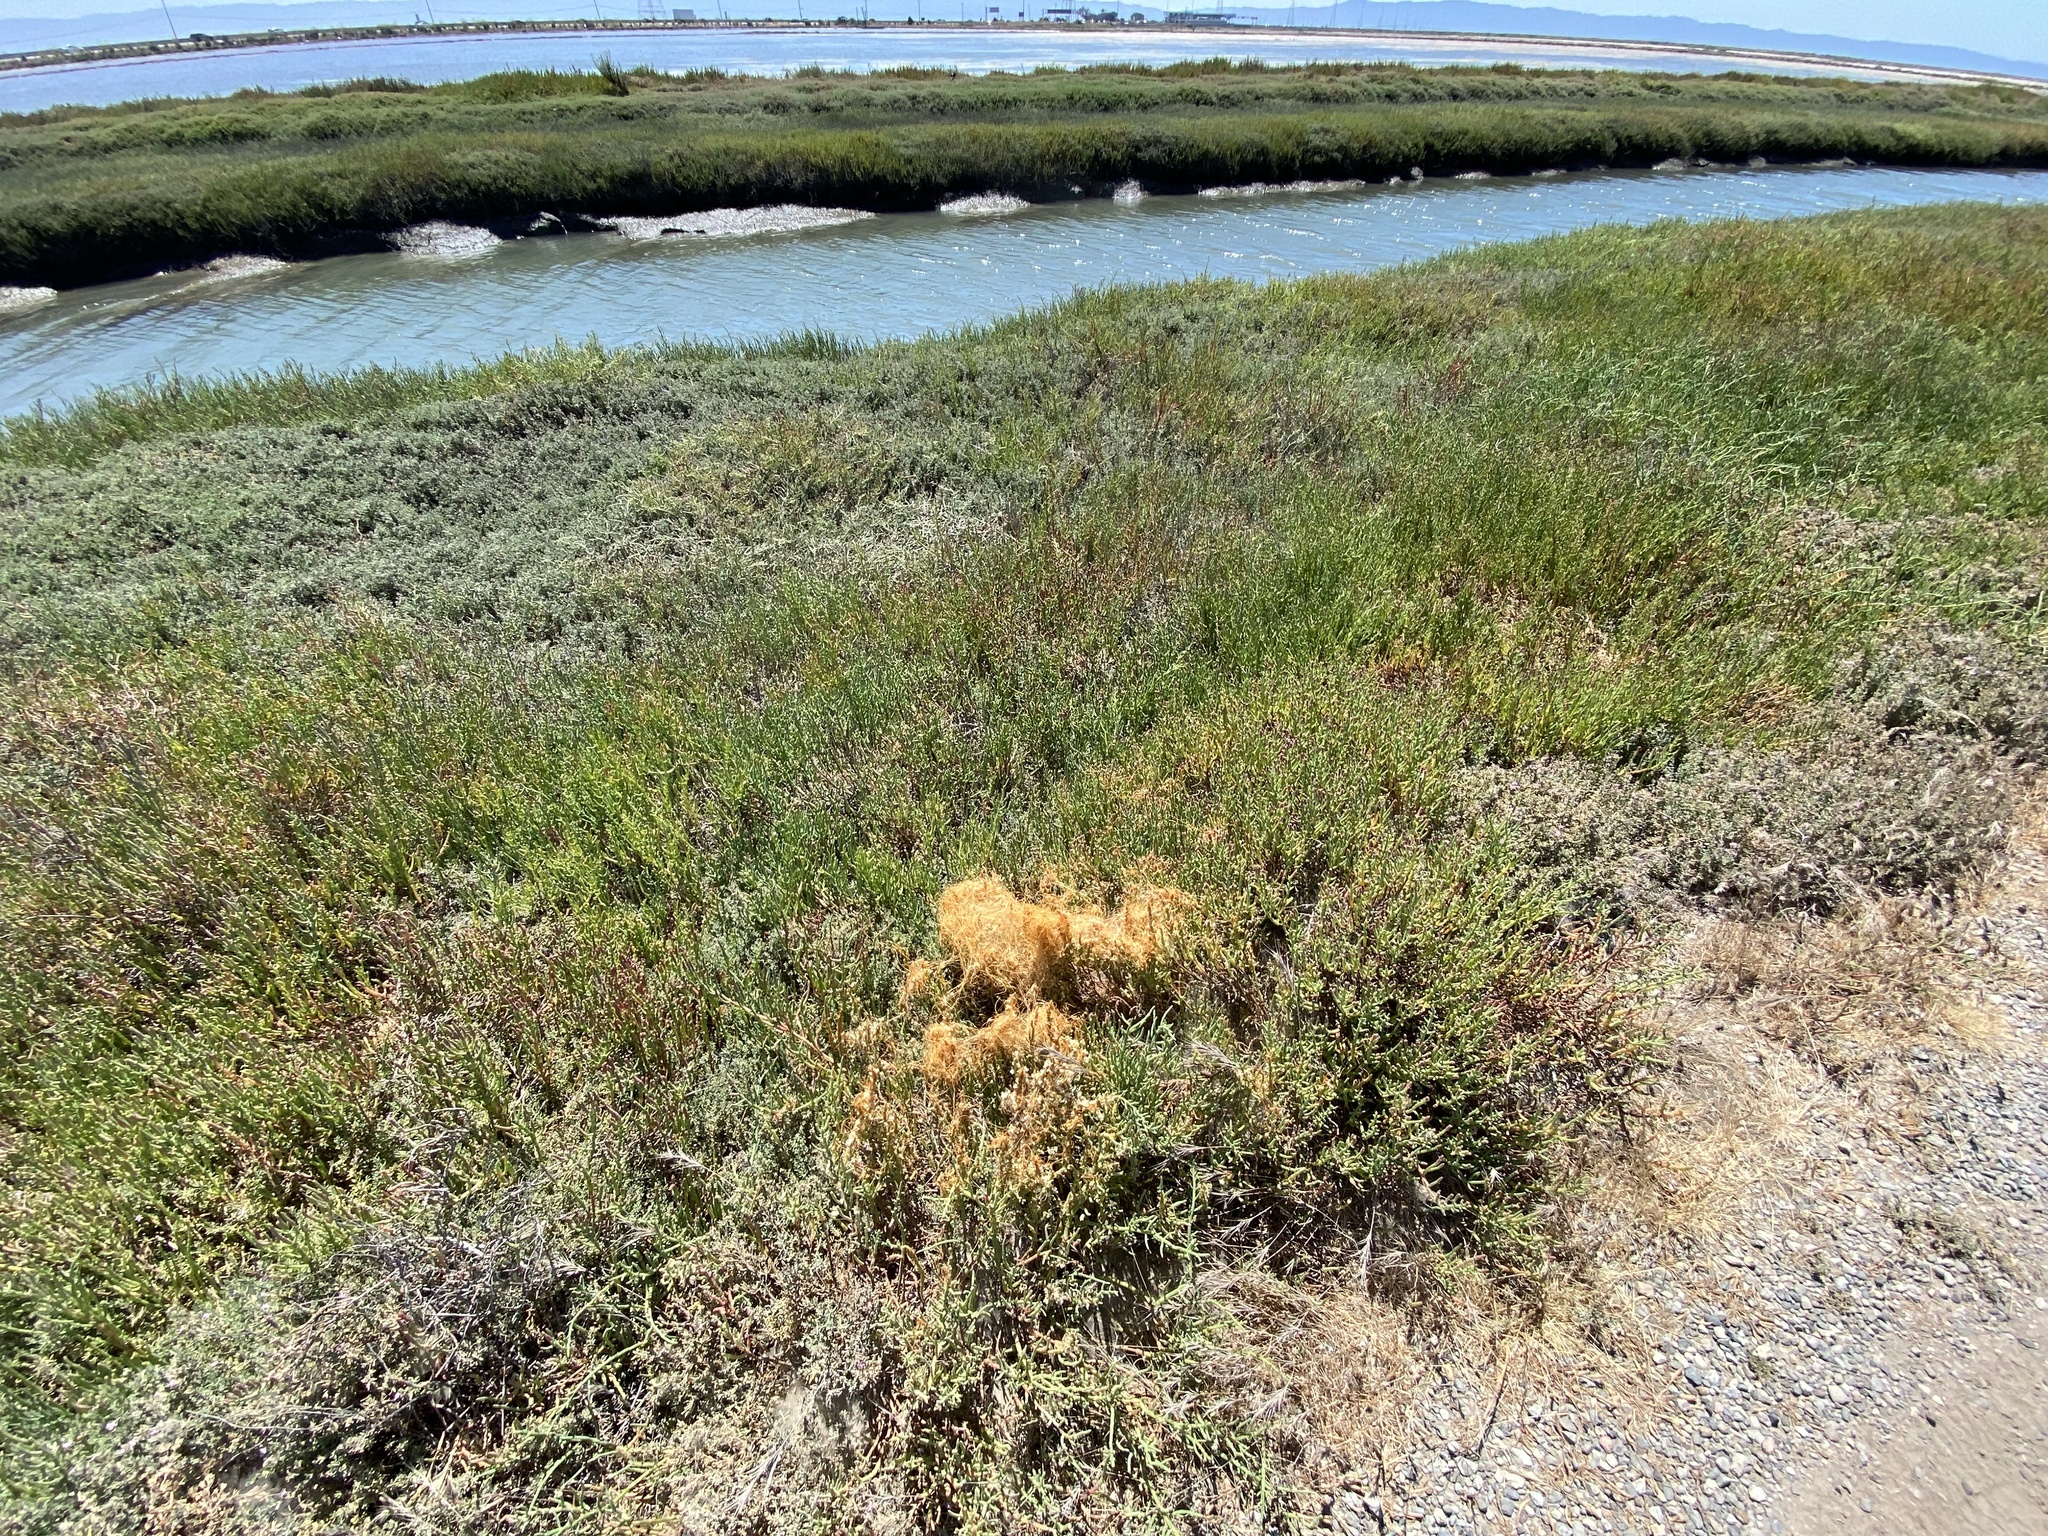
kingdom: Plantae
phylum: Tracheophyta
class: Magnoliopsida
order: Solanales
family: Convolvulaceae
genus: Cuscuta
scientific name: Cuscuta pacifica
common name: Large saltmarsh dodder
